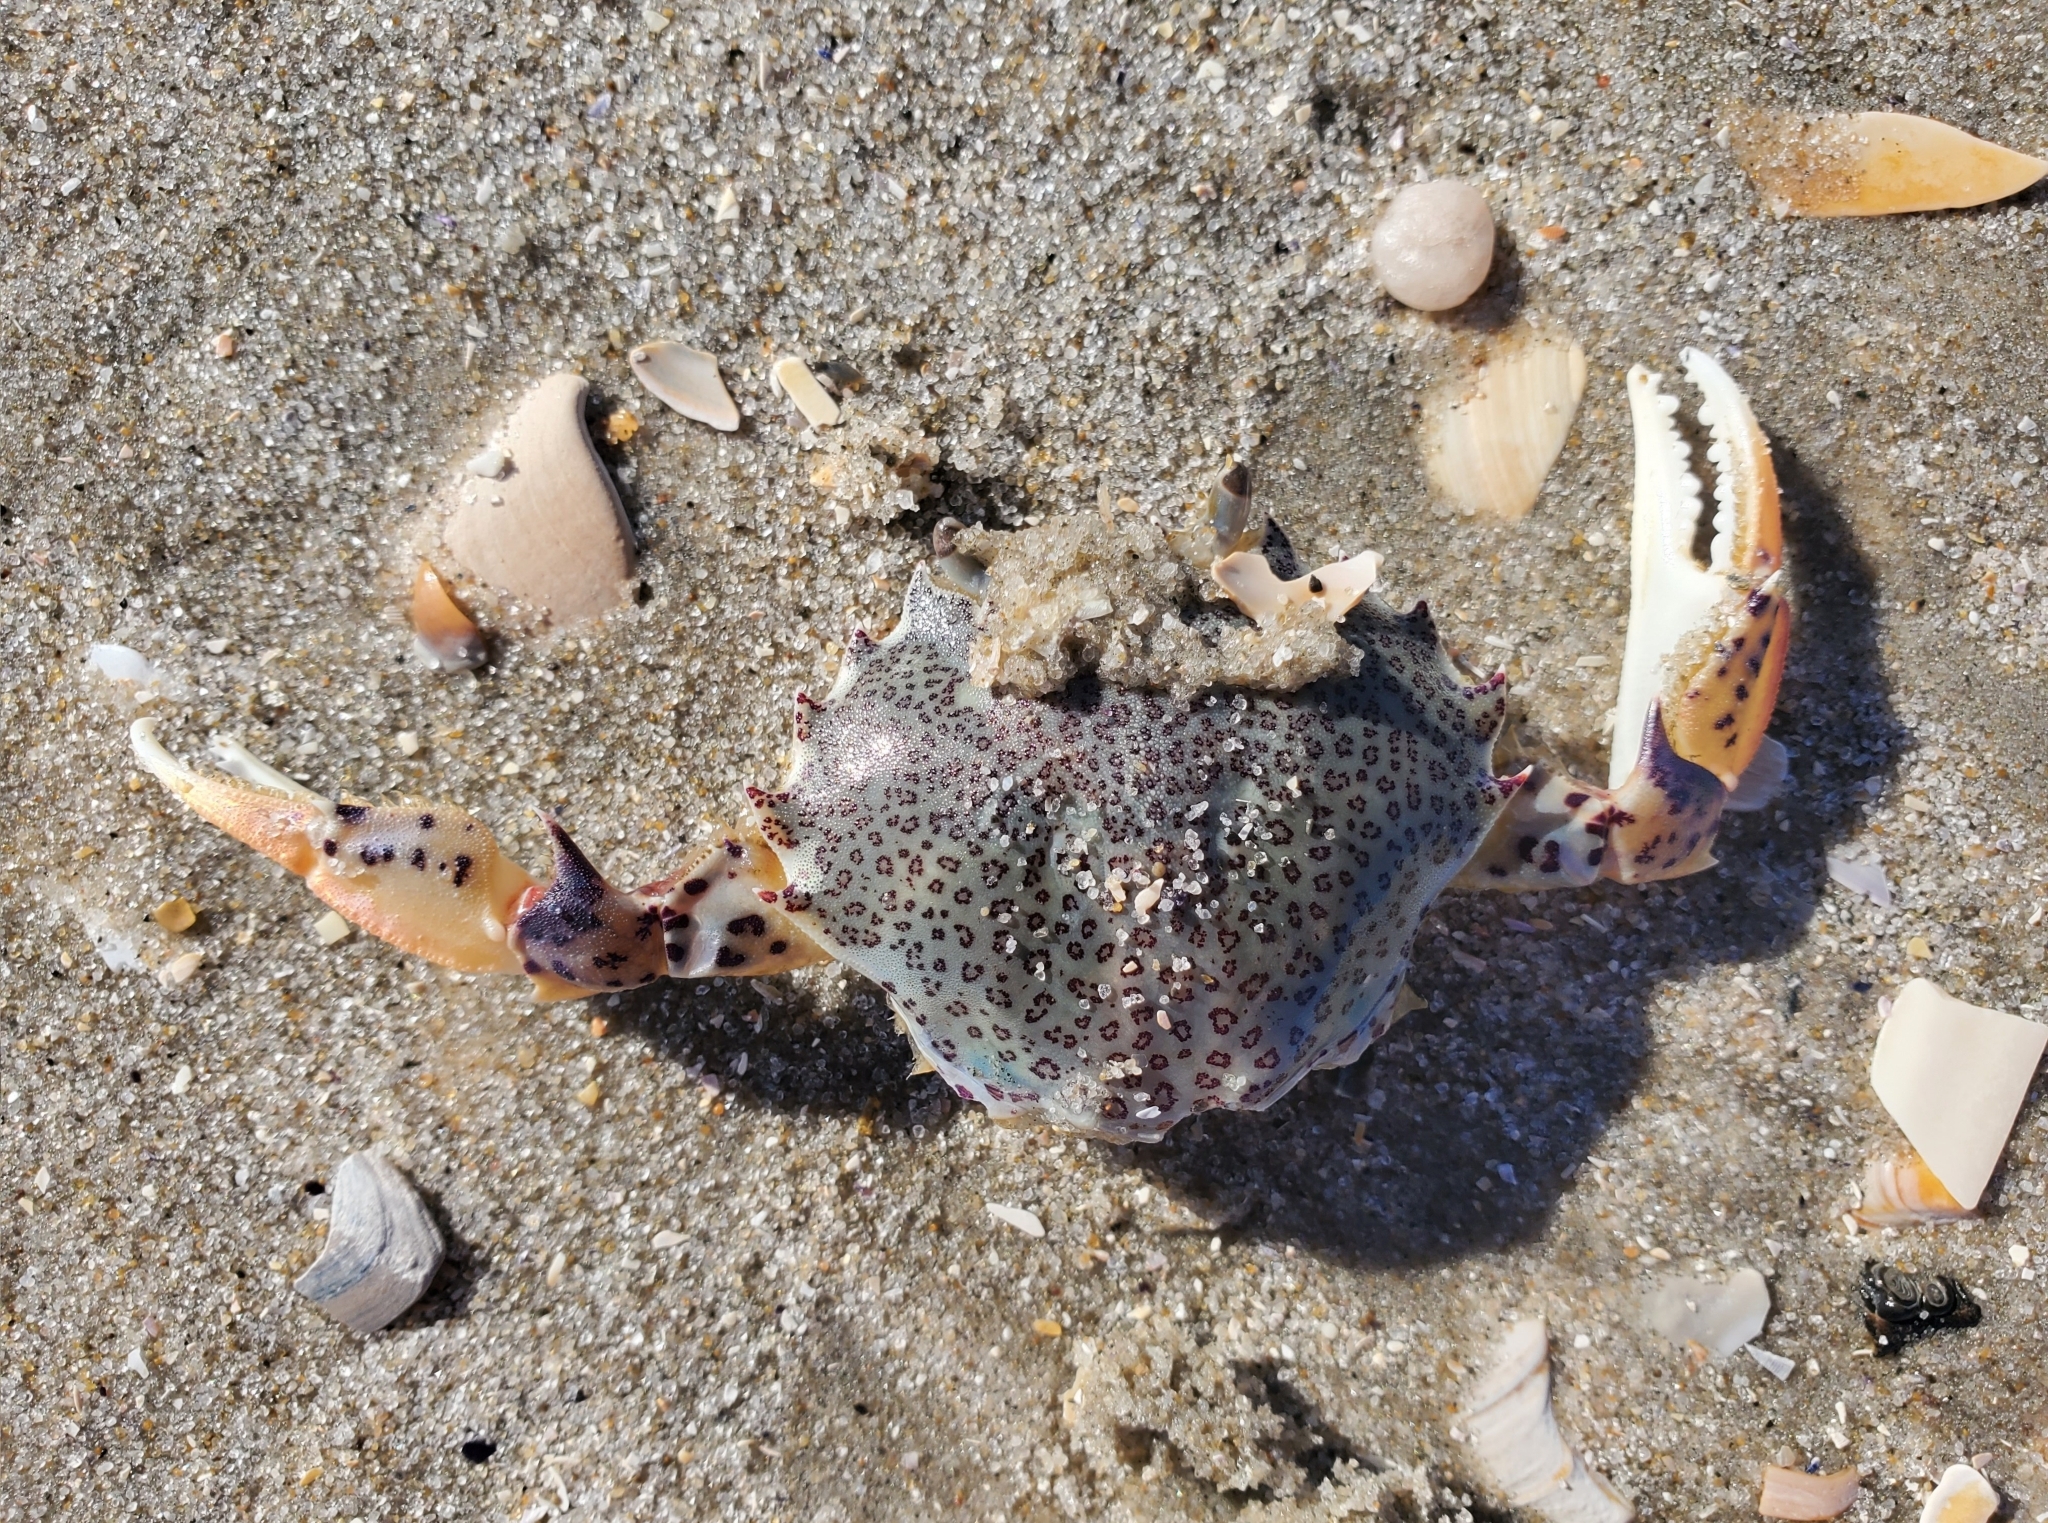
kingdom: Animalia
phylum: Arthropoda
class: Malacostraca
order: Decapoda
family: Ovalipidae
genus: Ovalipes
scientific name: Ovalipes ocellatus
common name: Lady crab
